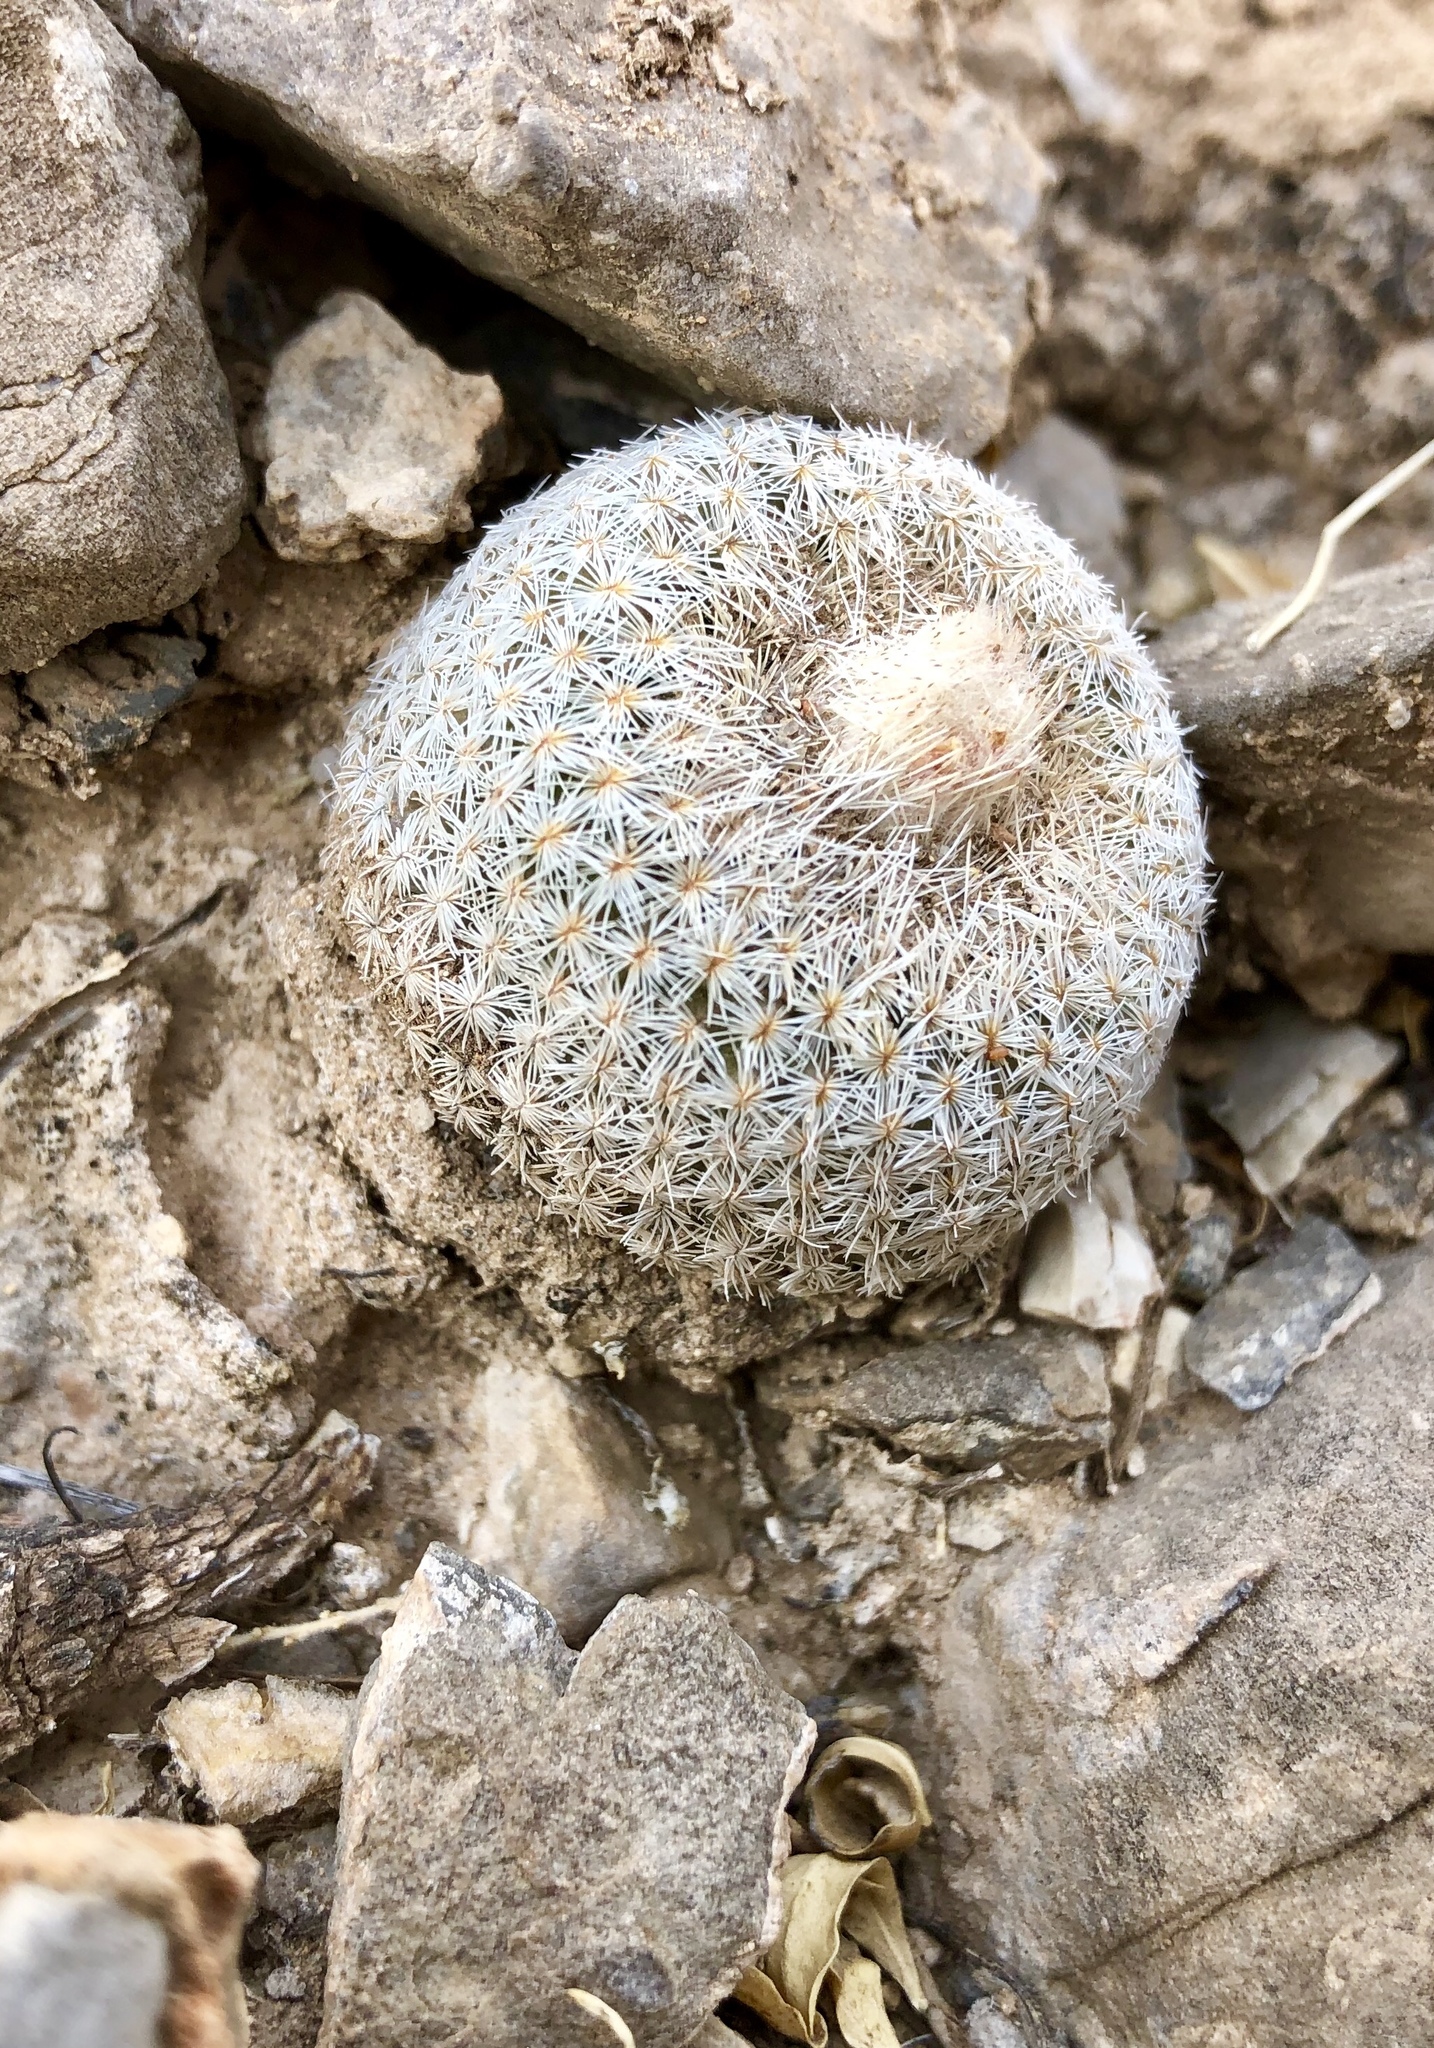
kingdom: Plantae
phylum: Tracheophyta
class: Magnoliopsida
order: Caryophyllales
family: Cactaceae
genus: Epithelantha
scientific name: Epithelantha micromeris
